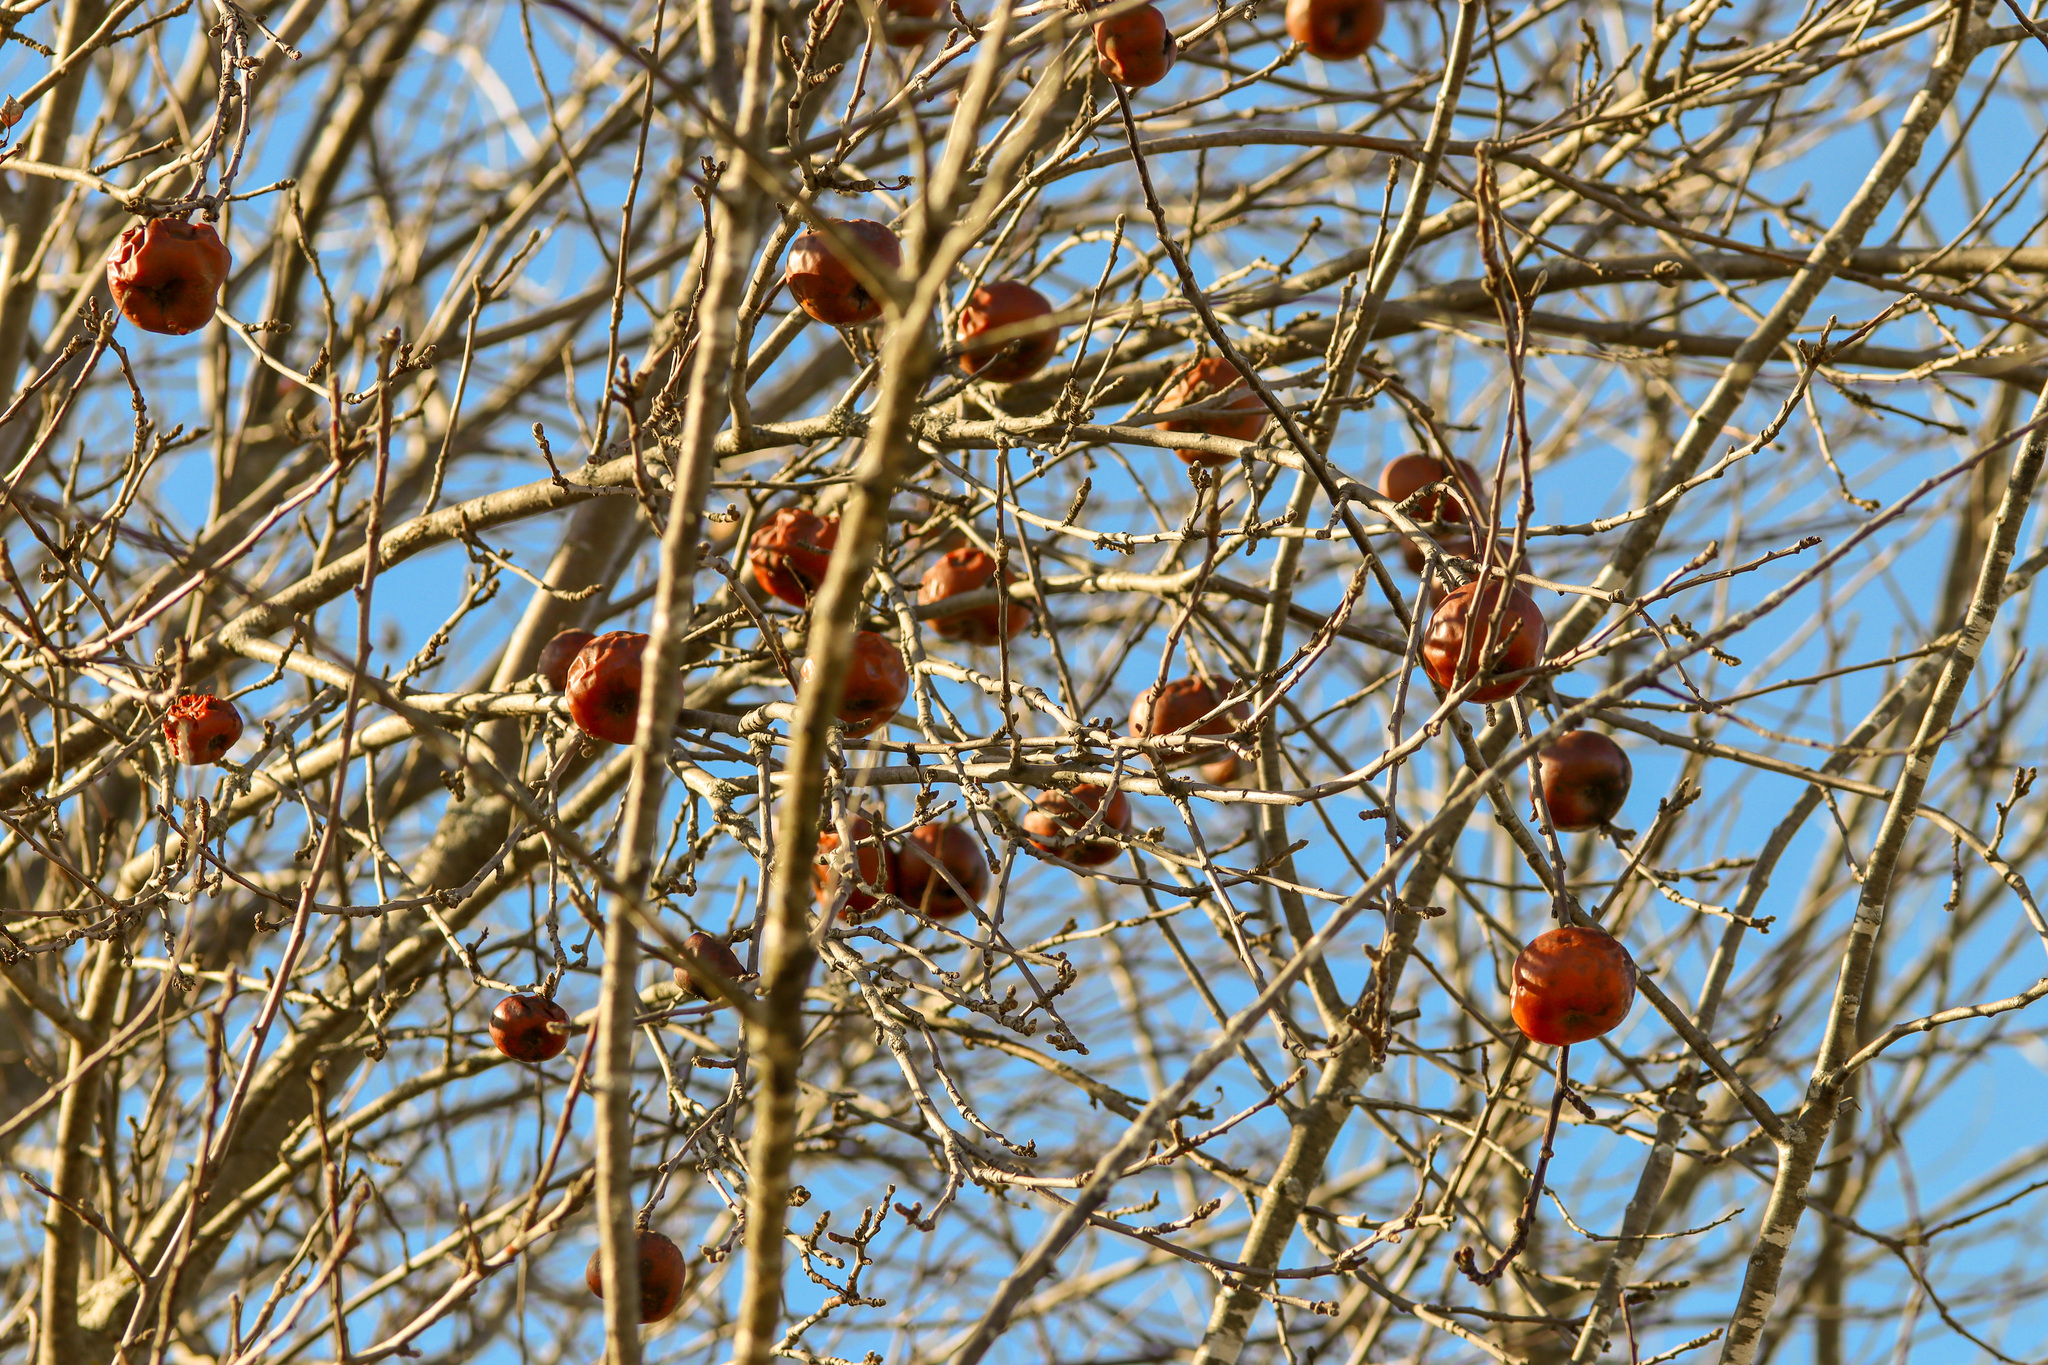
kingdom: Plantae
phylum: Tracheophyta
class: Magnoliopsida
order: Rosales
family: Rosaceae
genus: Malus
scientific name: Malus domestica
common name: Apple
